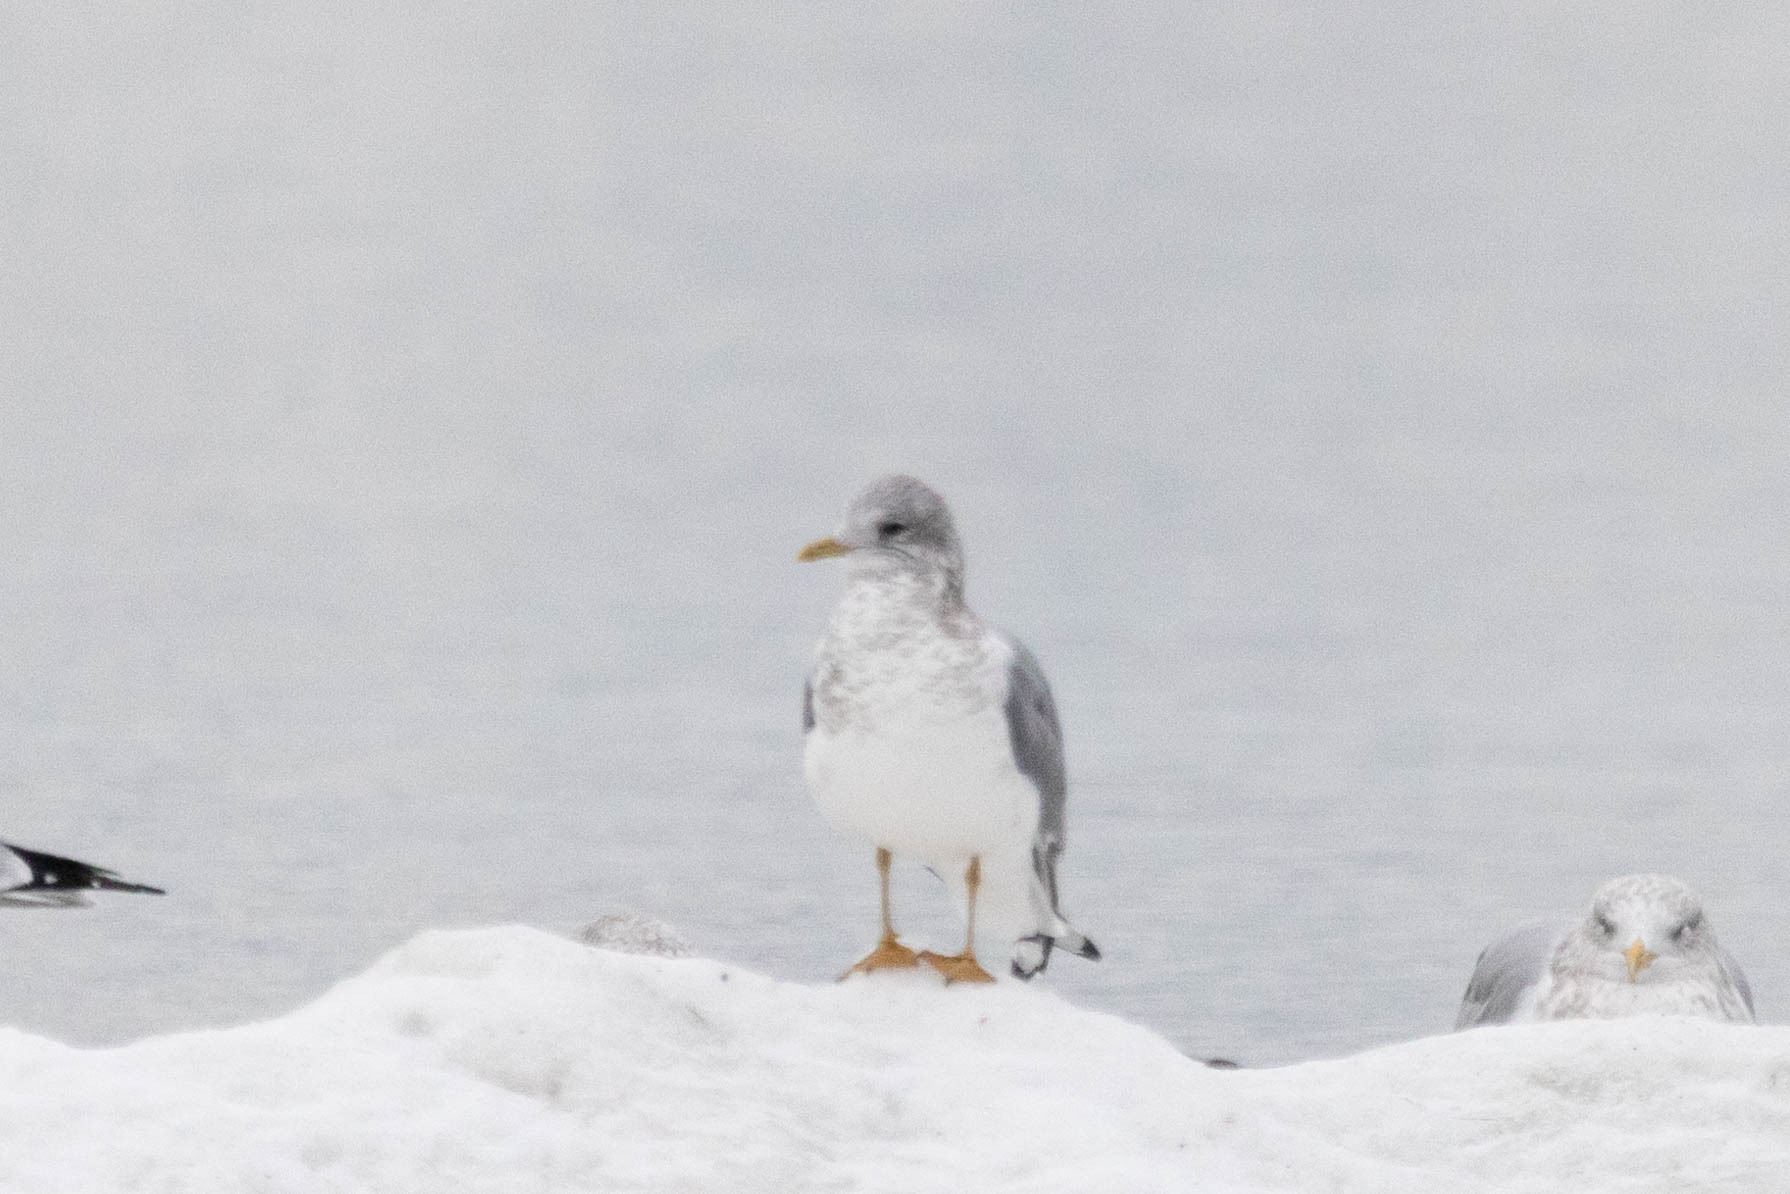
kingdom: Animalia
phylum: Chordata
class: Aves
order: Charadriiformes
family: Laridae
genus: Larus
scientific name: Larus brachyrhynchus
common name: Short-billed gull
